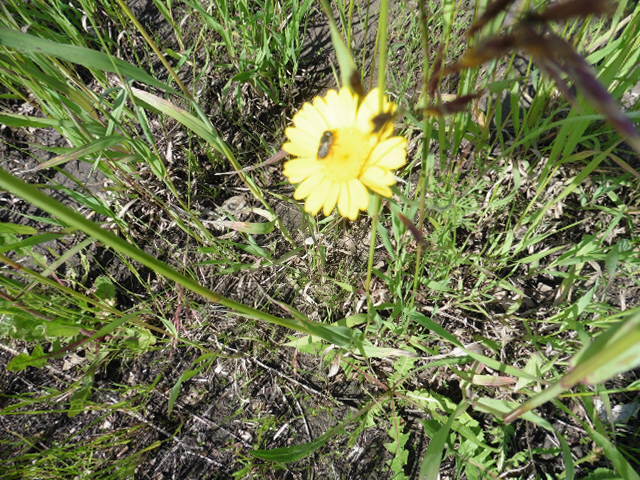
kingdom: Plantae
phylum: Tracheophyta
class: Magnoliopsida
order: Asterales
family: Asteraceae
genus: Cota
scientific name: Cota tinctoria
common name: Golden chamomile
